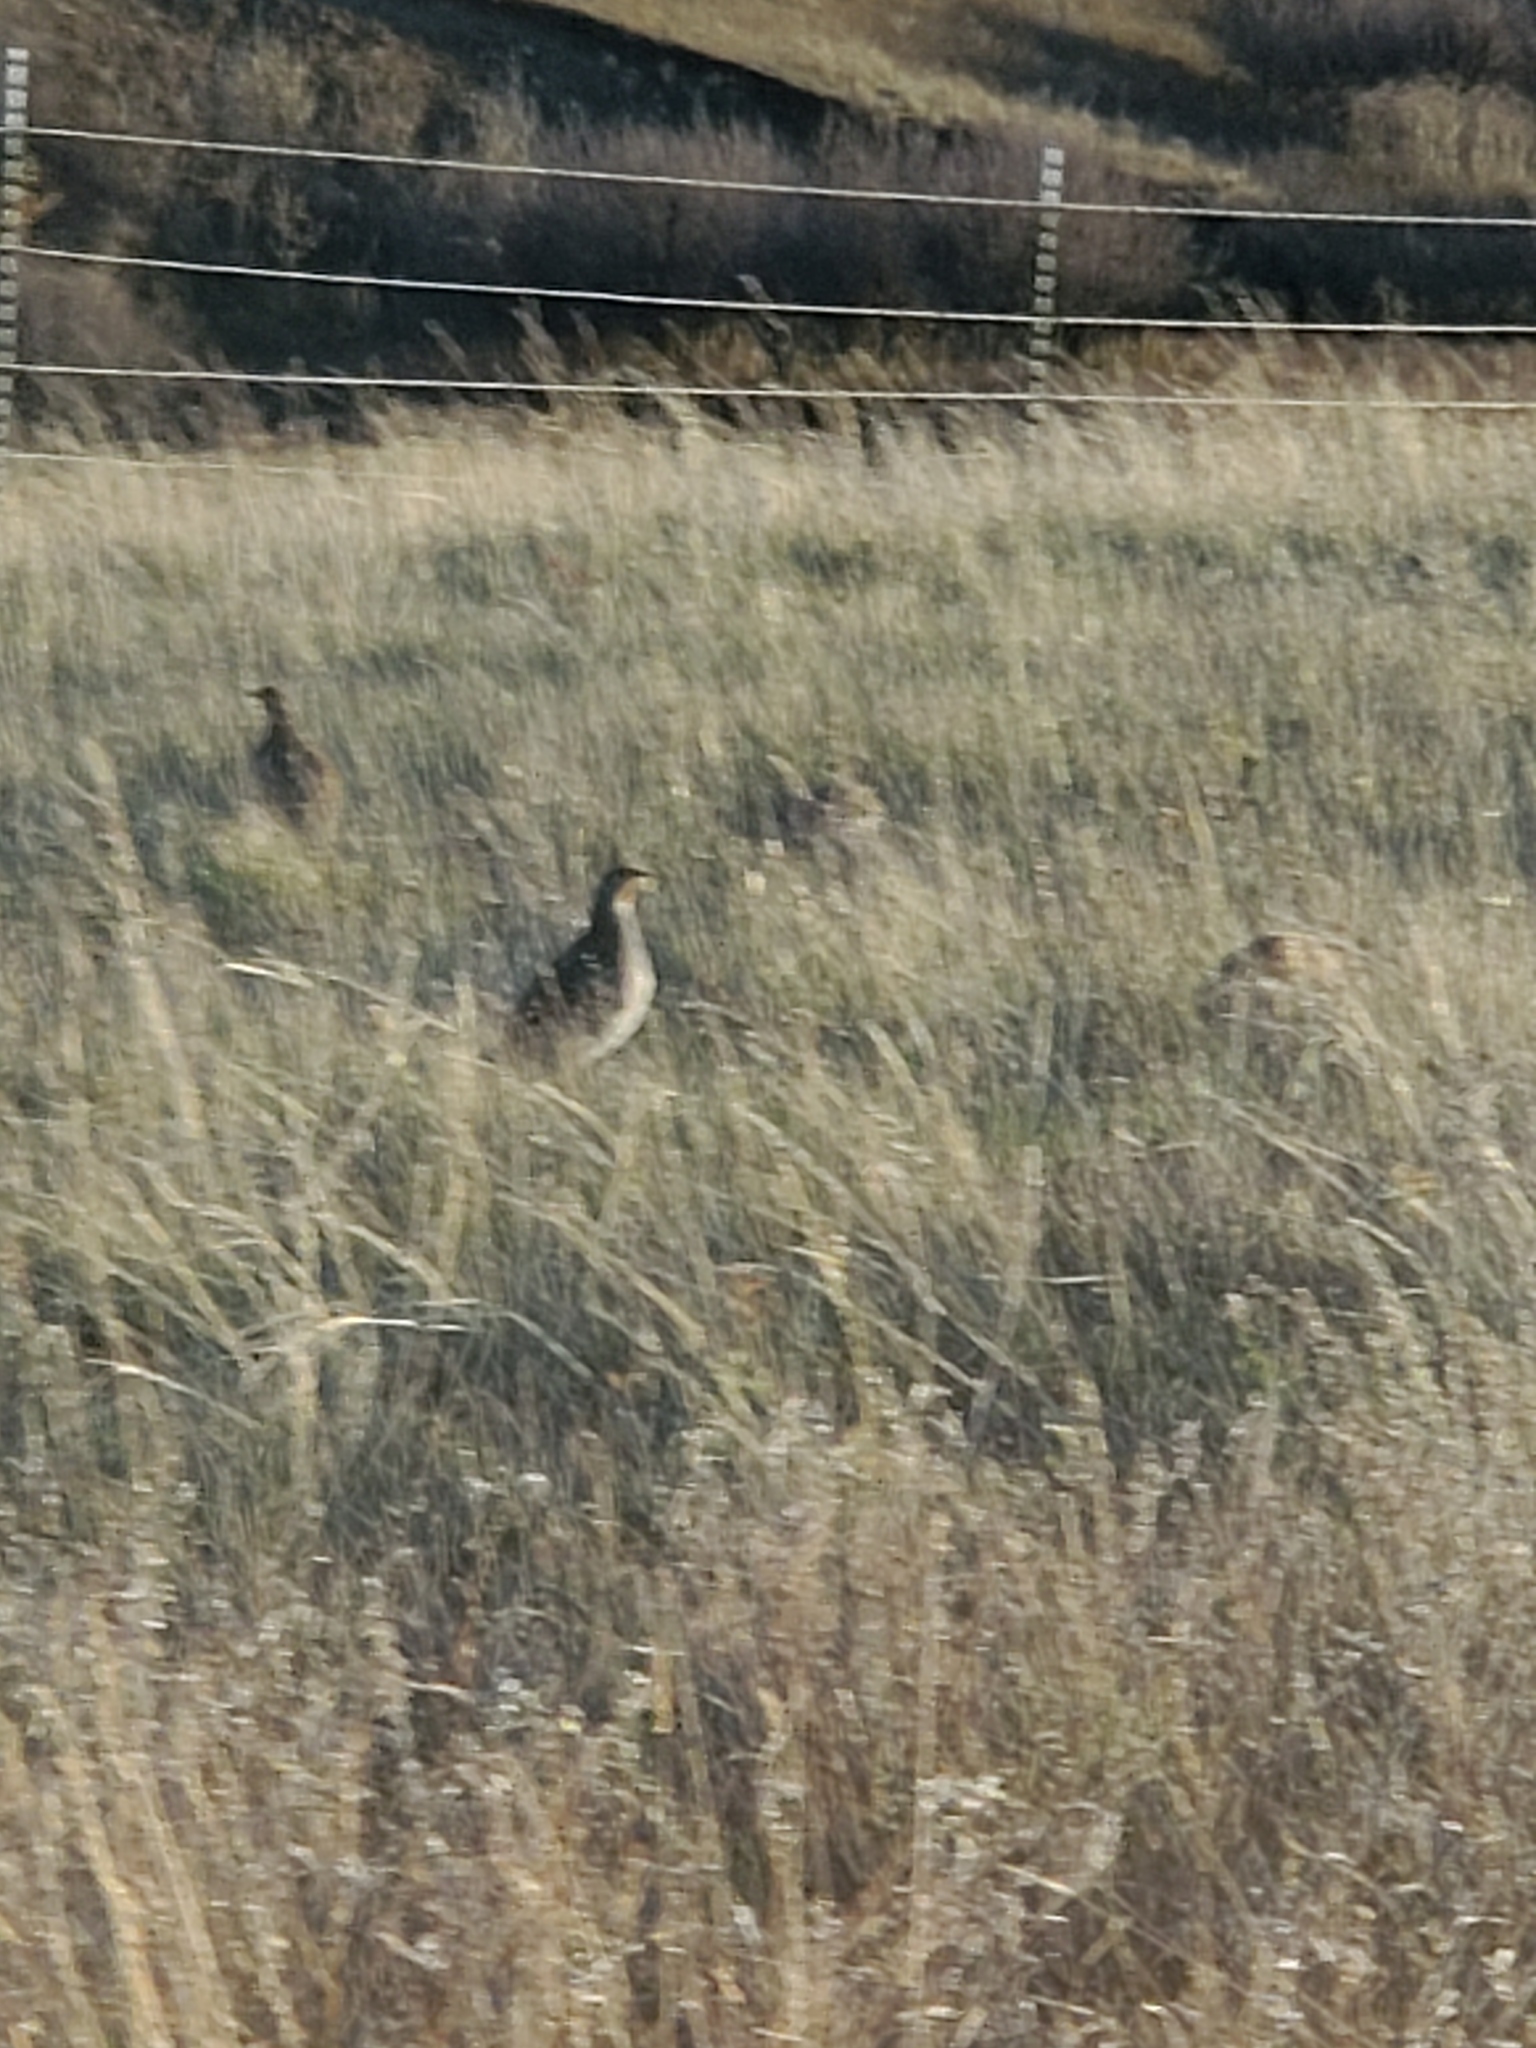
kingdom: Animalia
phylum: Chordata
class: Aves
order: Galliformes
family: Phasianidae
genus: Perdix
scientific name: Perdix perdix
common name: Grey partridge
